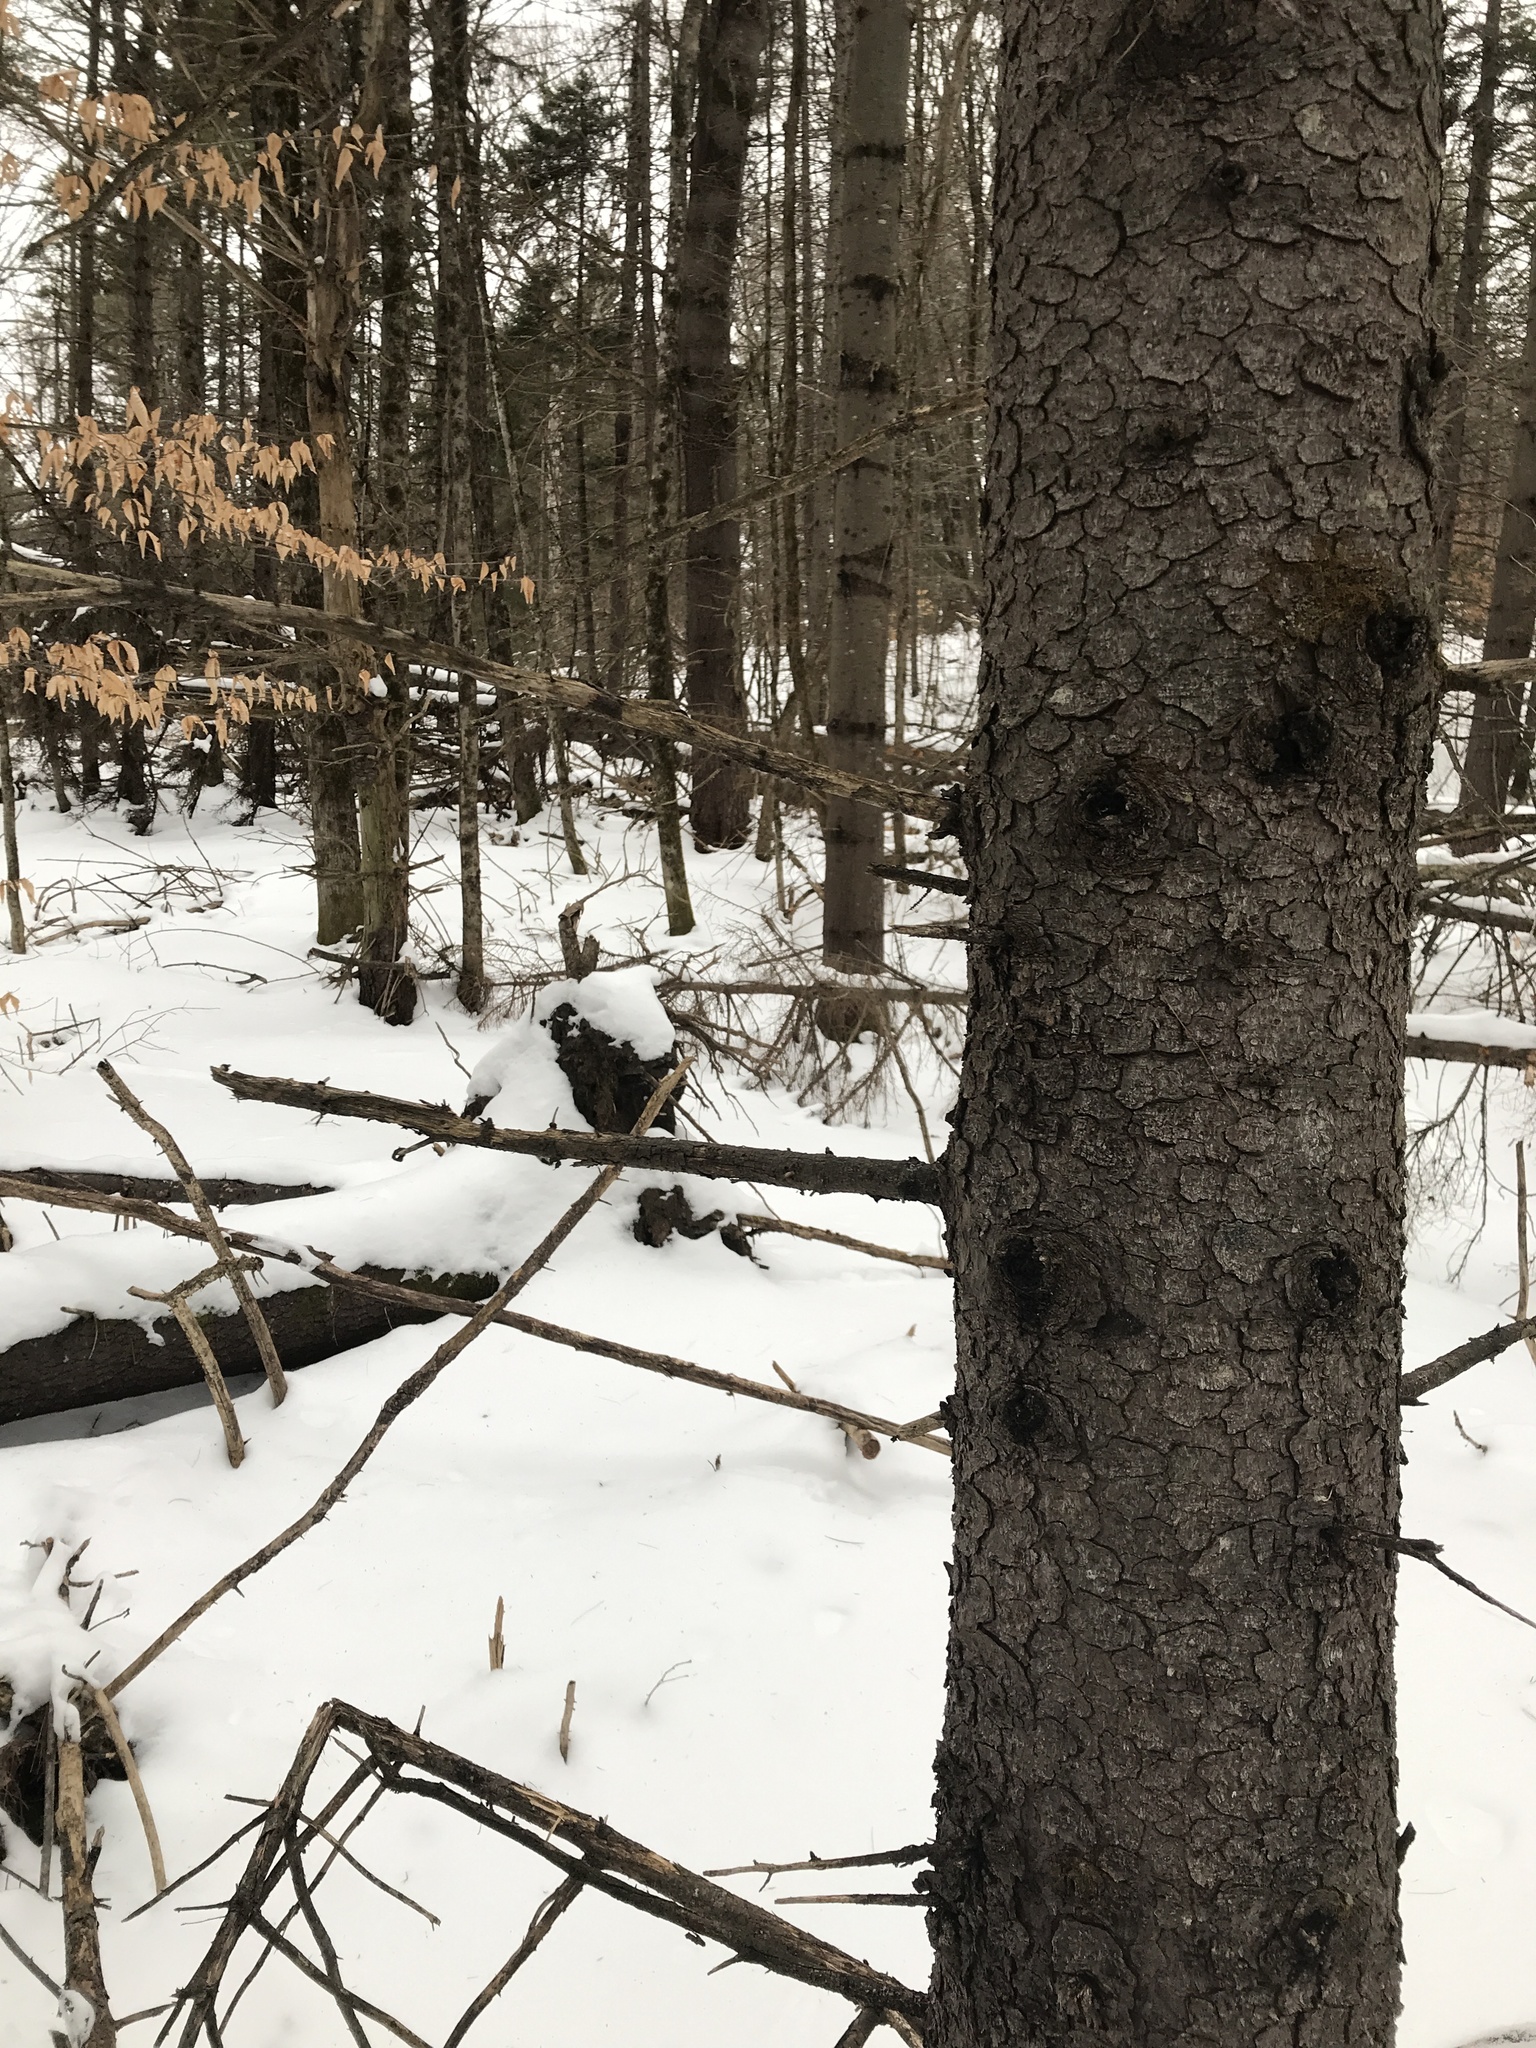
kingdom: Plantae
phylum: Tracheophyta
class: Magnoliopsida
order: Fagales
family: Fagaceae
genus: Fagus
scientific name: Fagus grandifolia
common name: American beech
